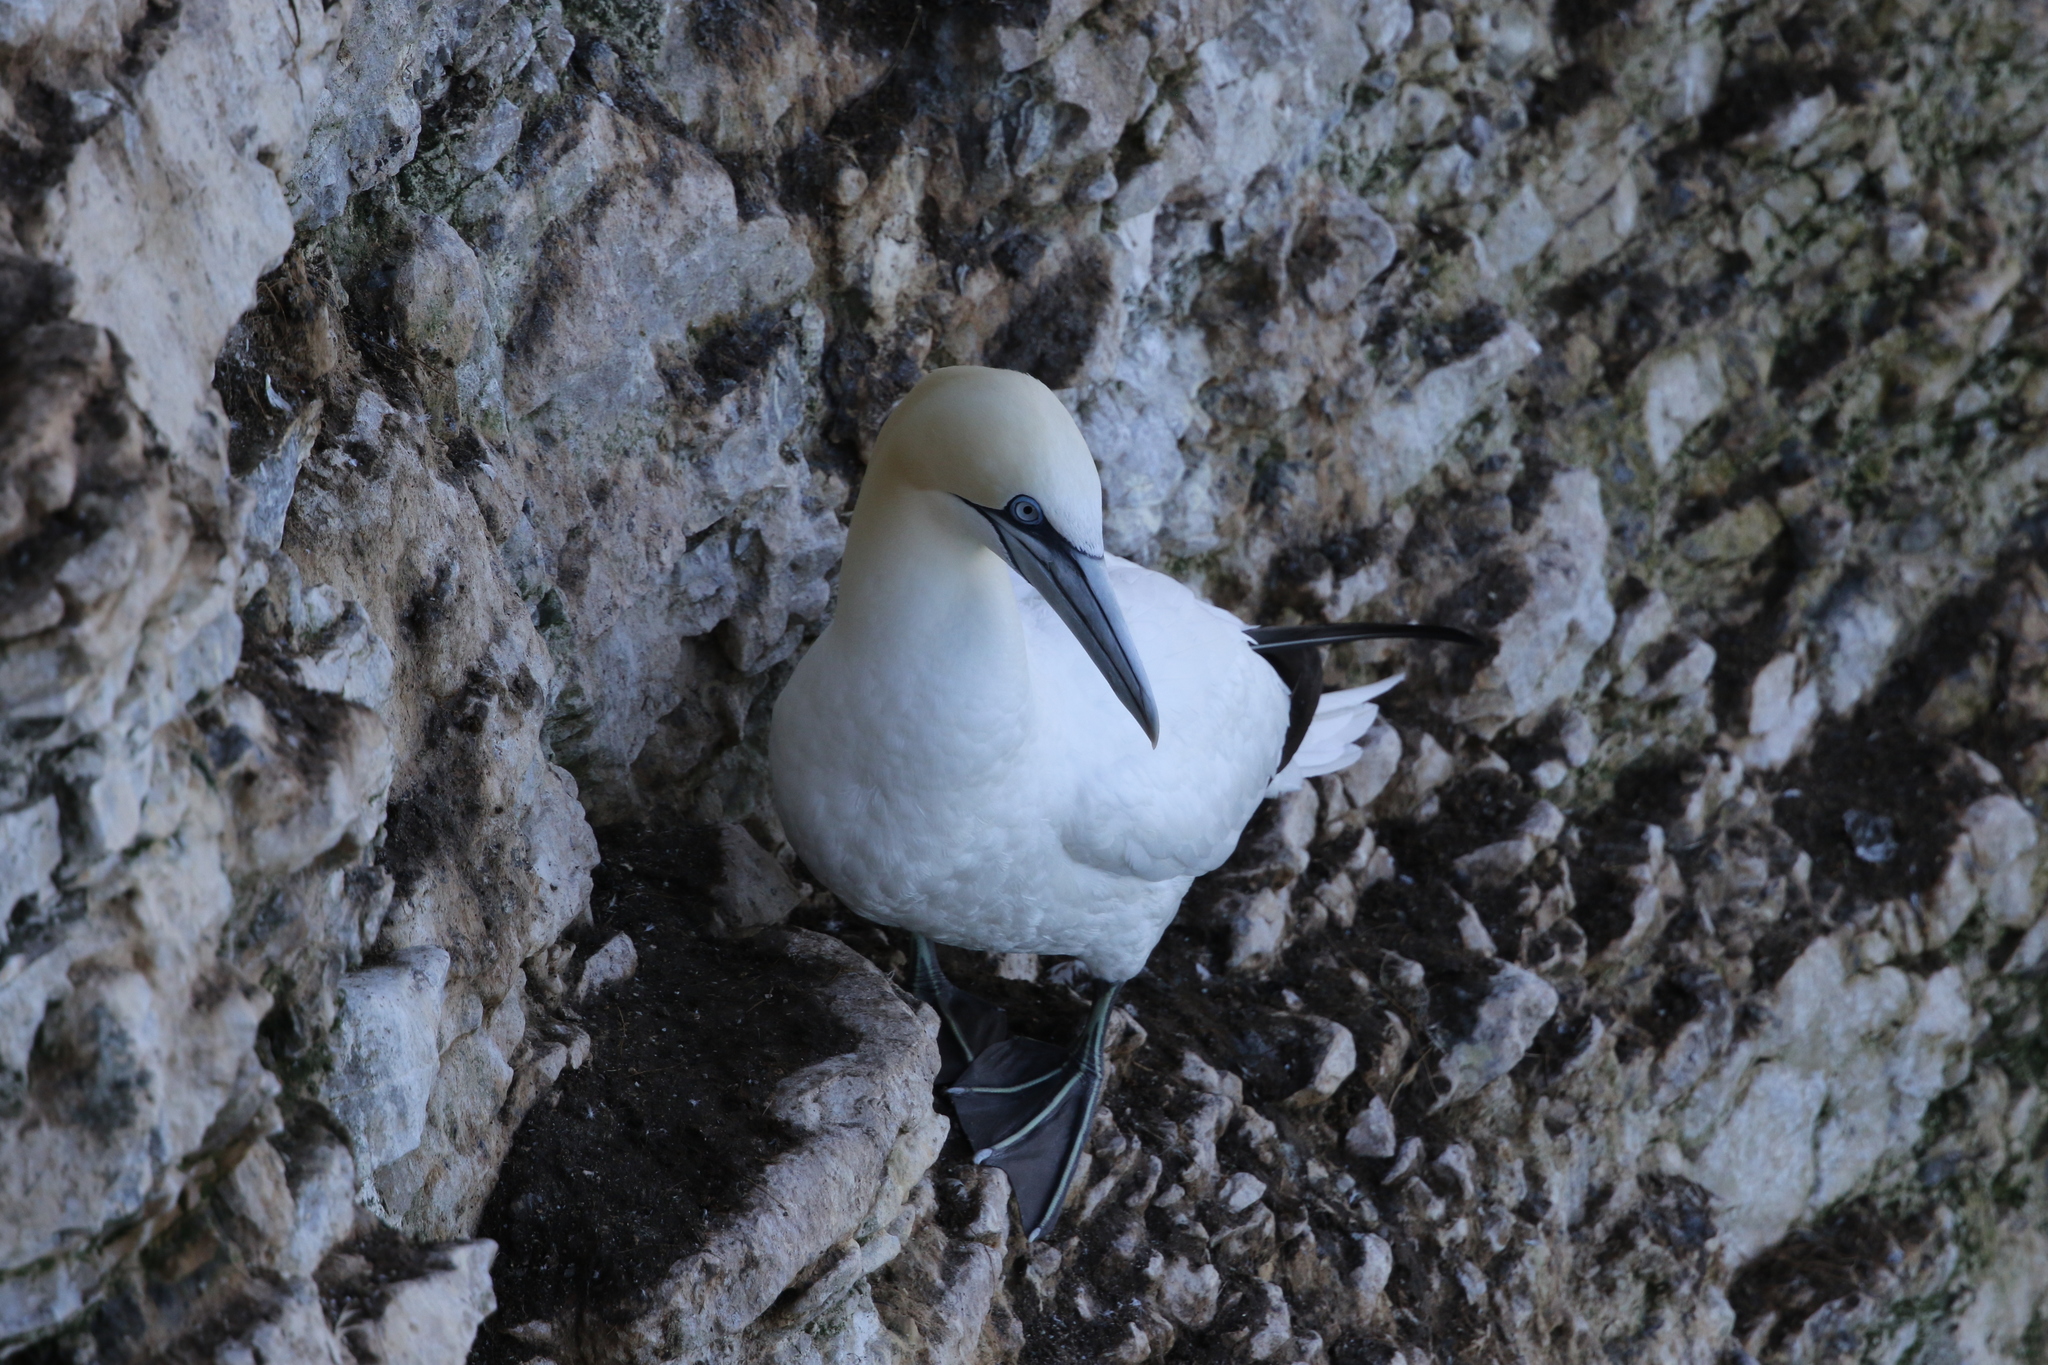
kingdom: Animalia
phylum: Chordata
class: Aves
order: Suliformes
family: Sulidae
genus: Morus
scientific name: Morus bassanus
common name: Northern gannet
